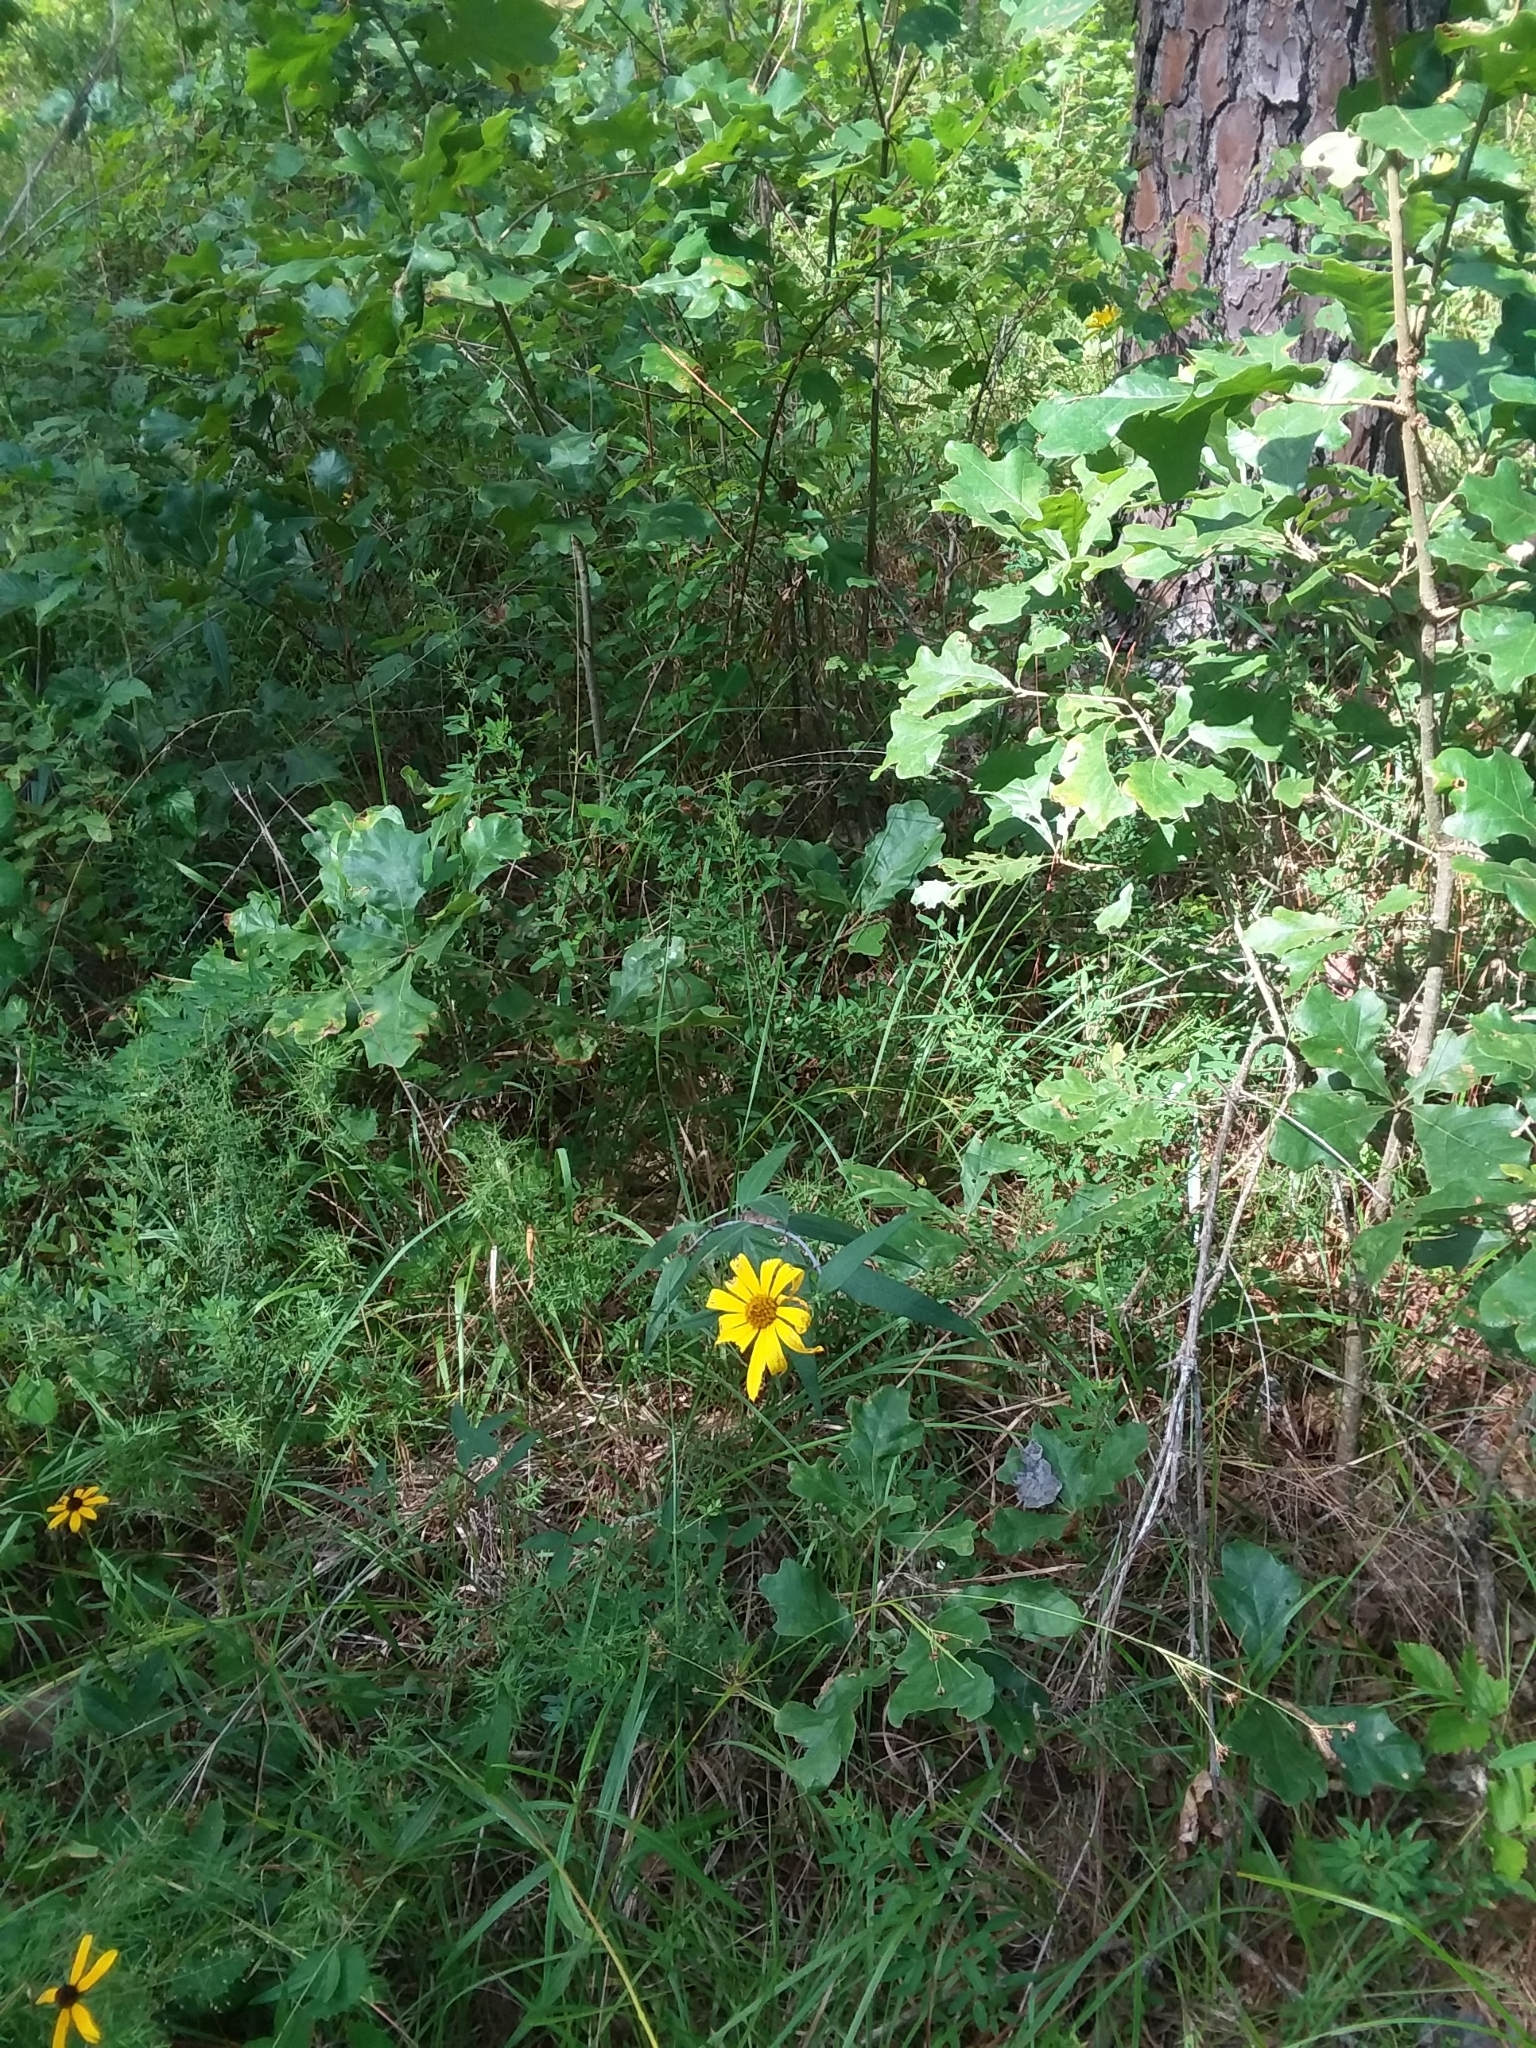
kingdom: Plantae
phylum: Tracheophyta
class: Magnoliopsida
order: Asterales
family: Asteraceae
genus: Helianthus
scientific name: Helianthus strumosus
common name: Pale-leaved sunflower
